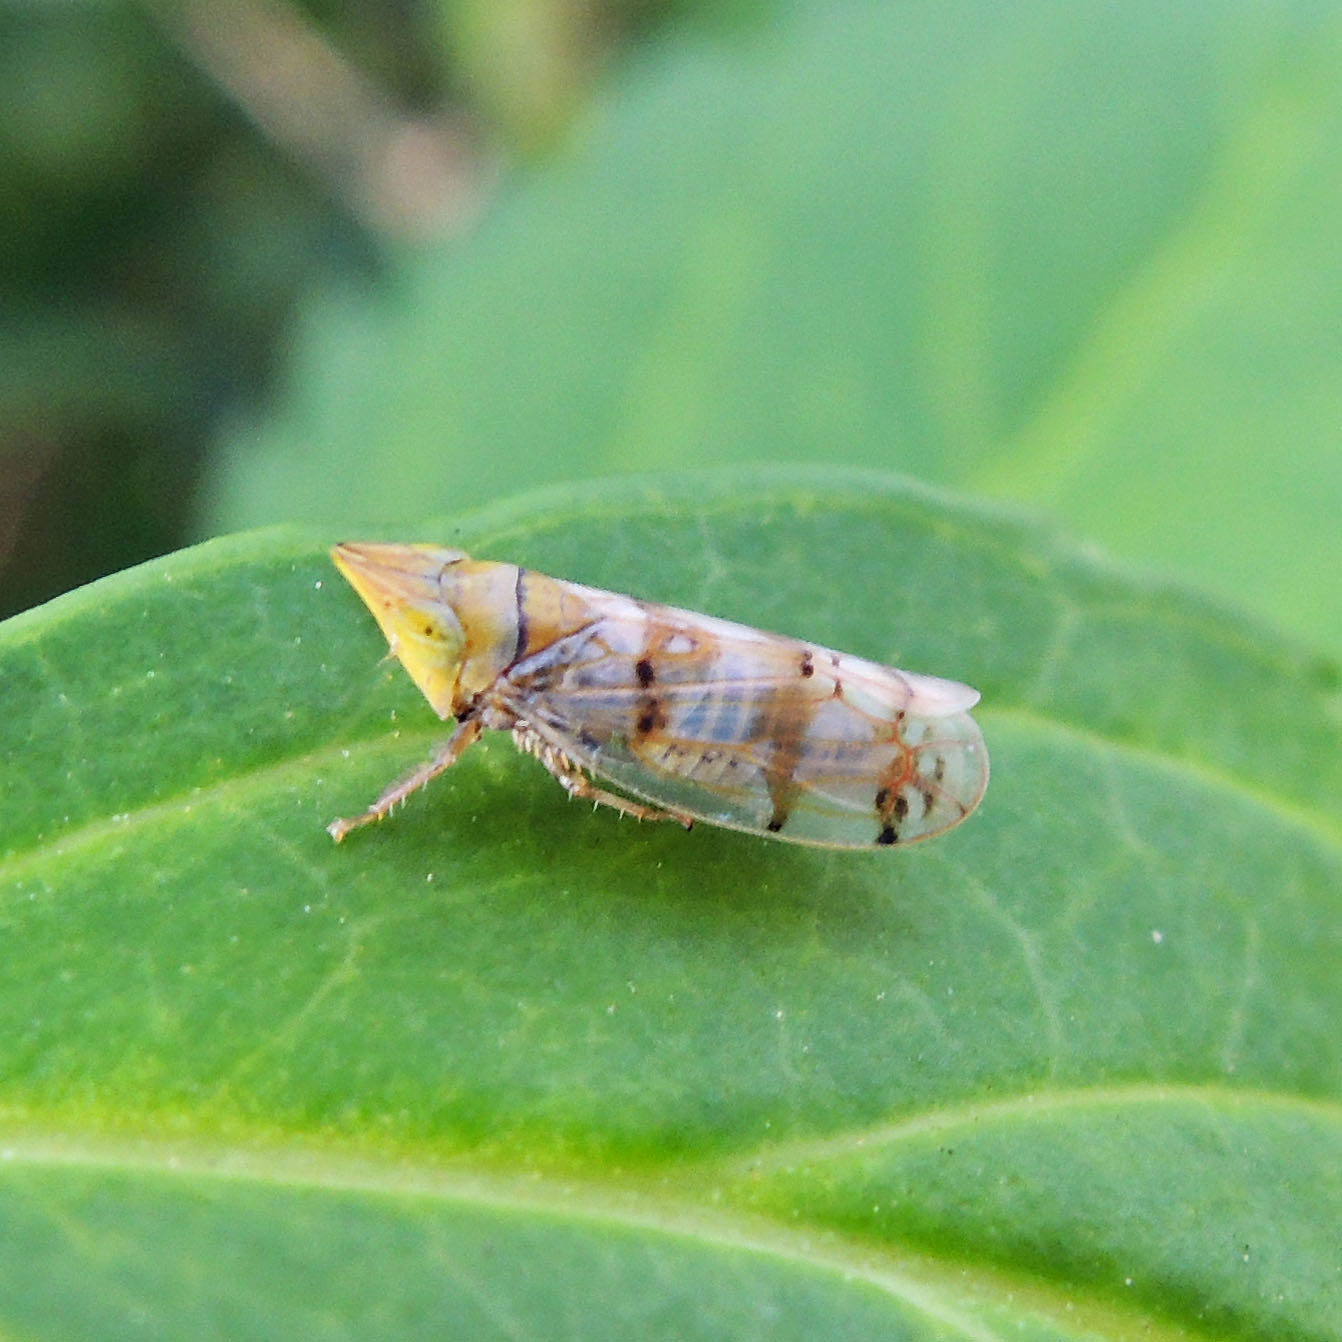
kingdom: Animalia
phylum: Arthropoda
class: Insecta
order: Hemiptera
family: Cicadellidae
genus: Japananus
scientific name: Japananus hyalinus
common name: The japanese maple leafhopper
